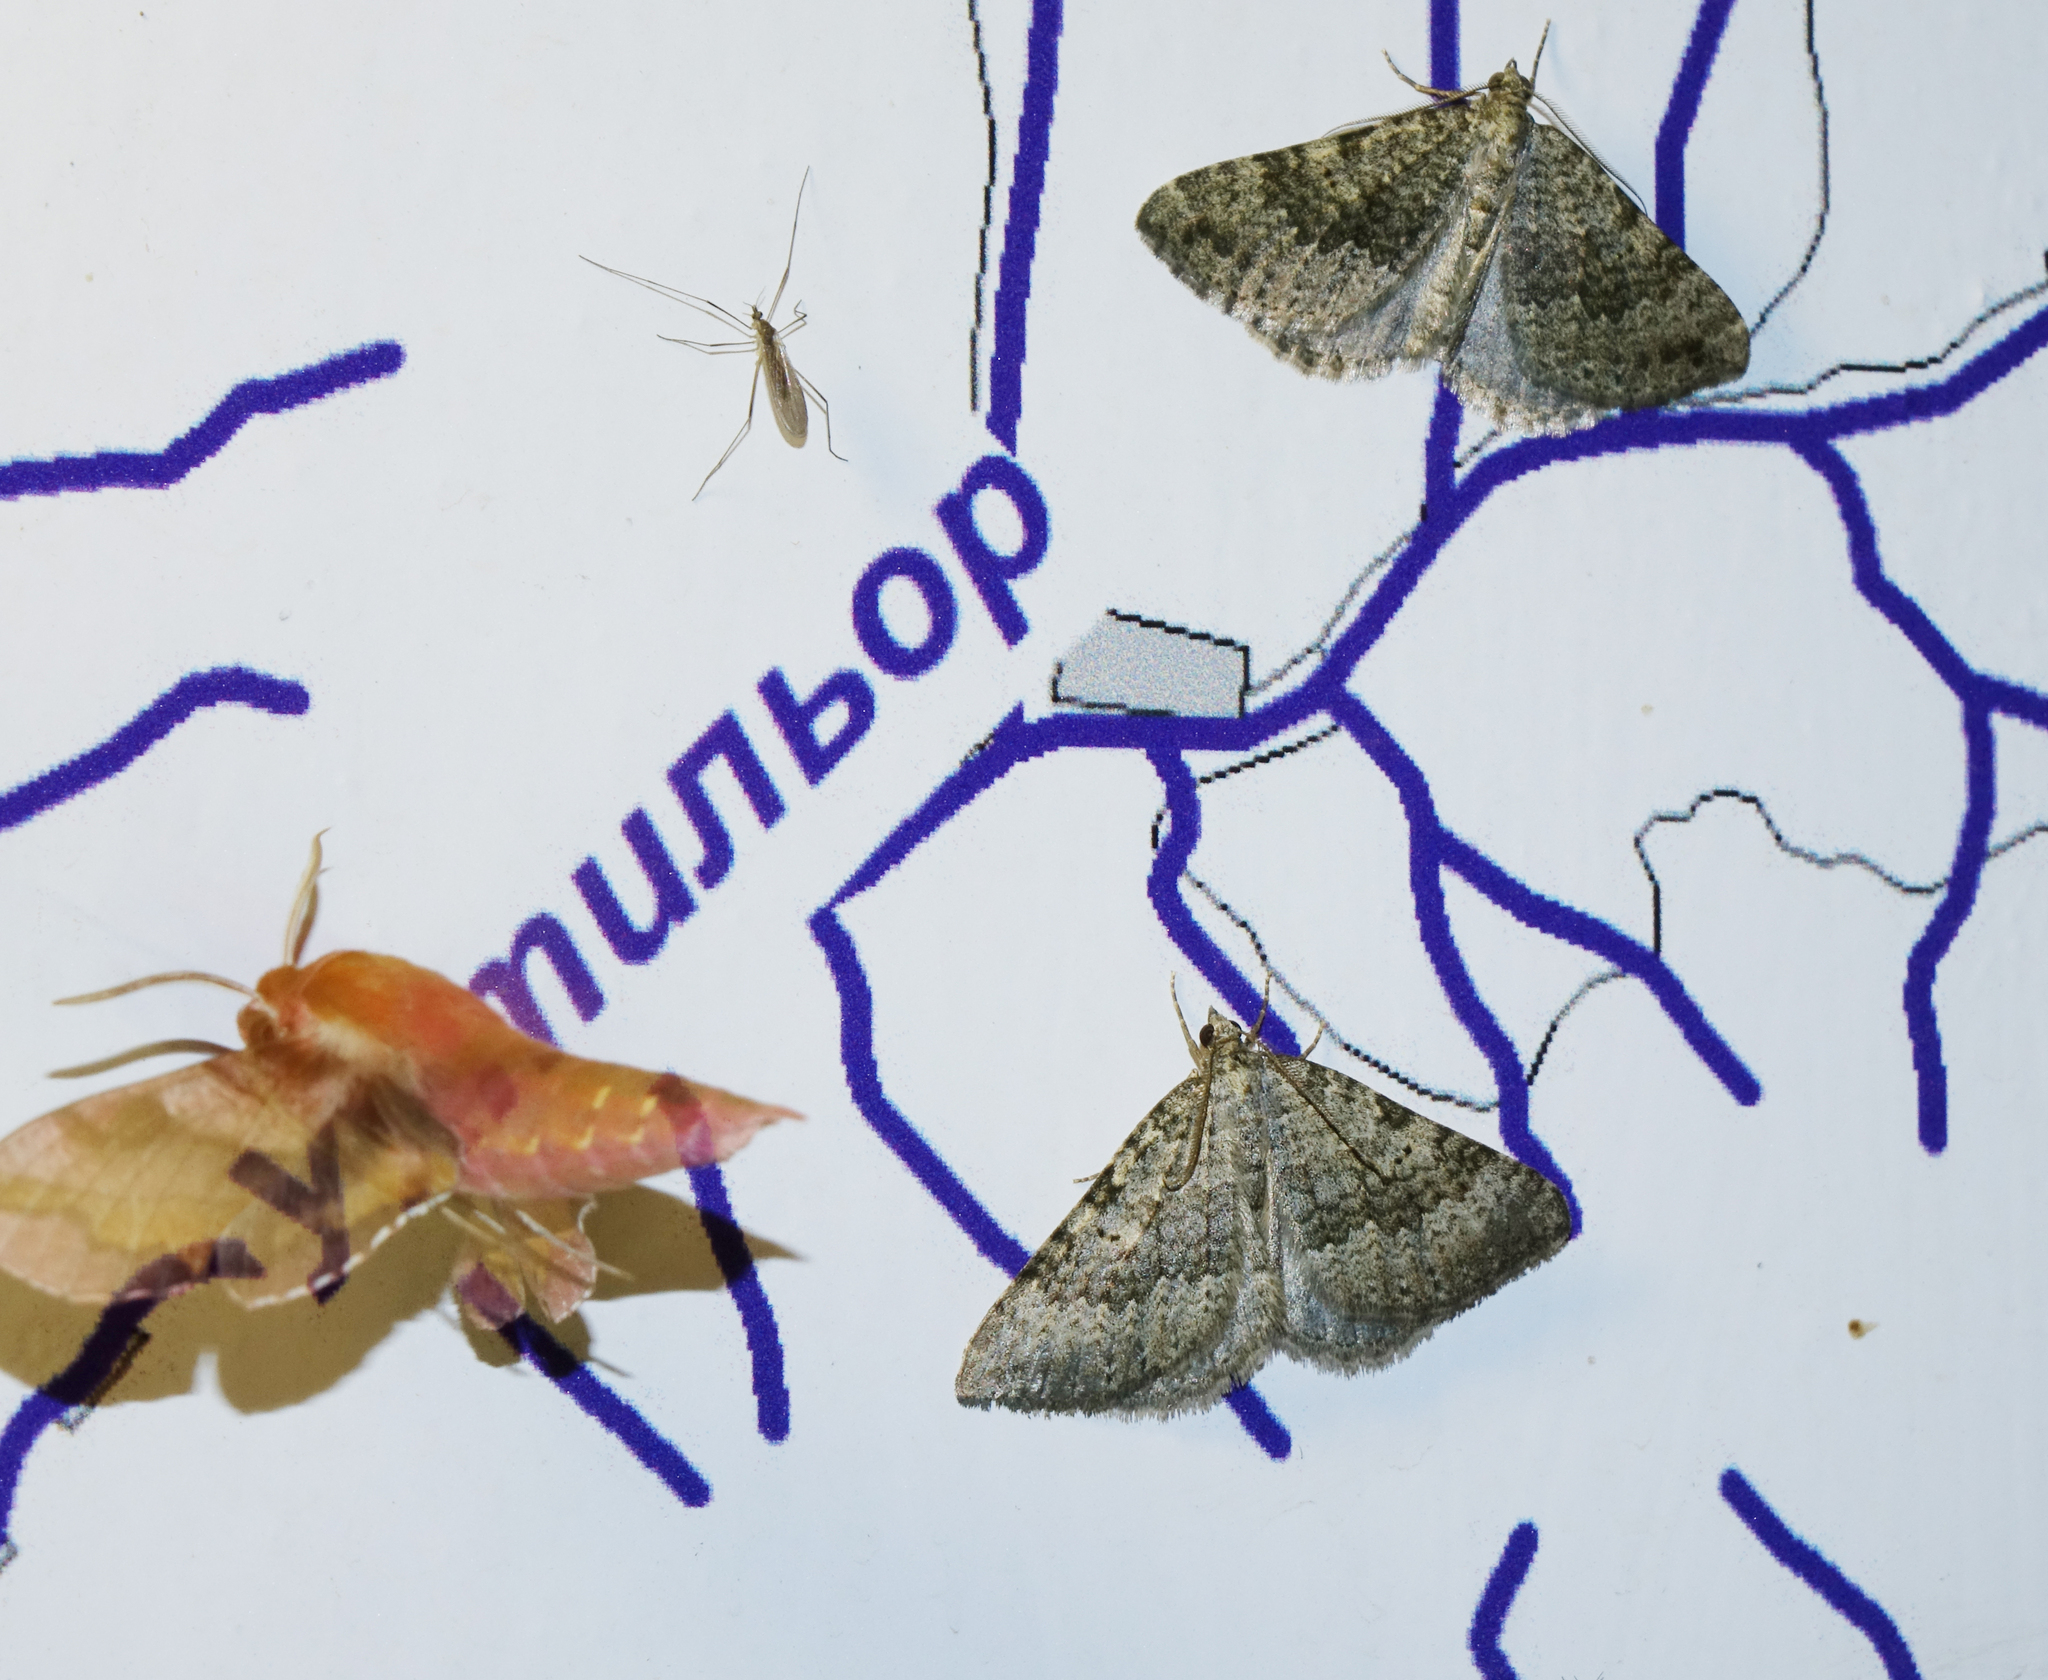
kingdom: Animalia
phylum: Arthropoda
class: Insecta
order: Lepidoptera
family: Geometridae
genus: Scotopteryx
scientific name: Scotopteryx
